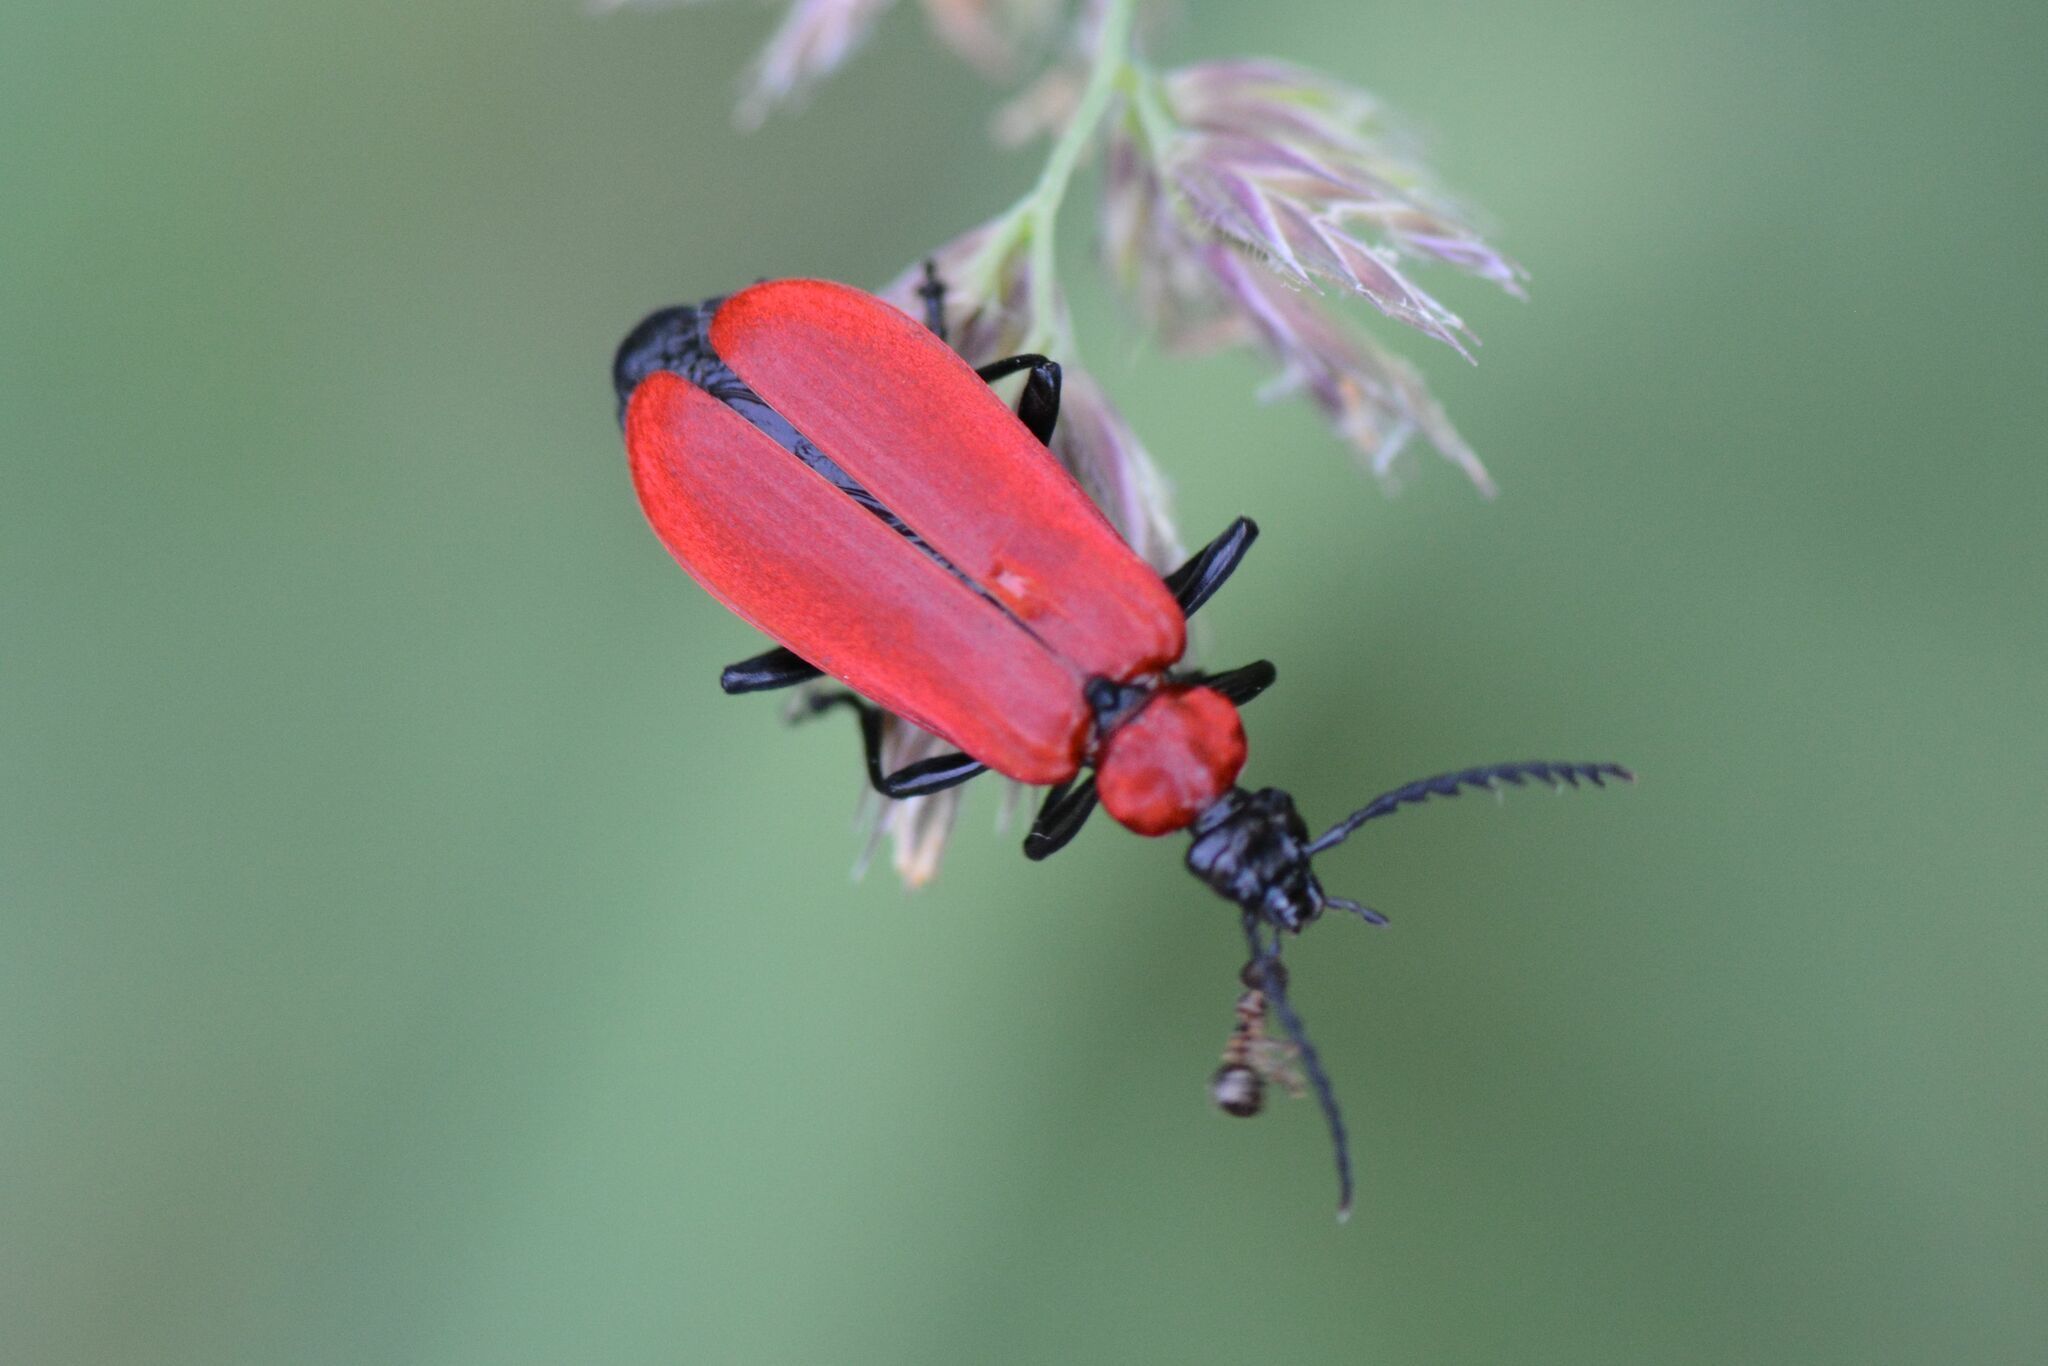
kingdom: Animalia
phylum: Arthropoda
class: Insecta
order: Coleoptera
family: Pyrochroidae
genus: Pyrochroa
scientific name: Pyrochroa coccinea
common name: Black-headed cardinal beetle
